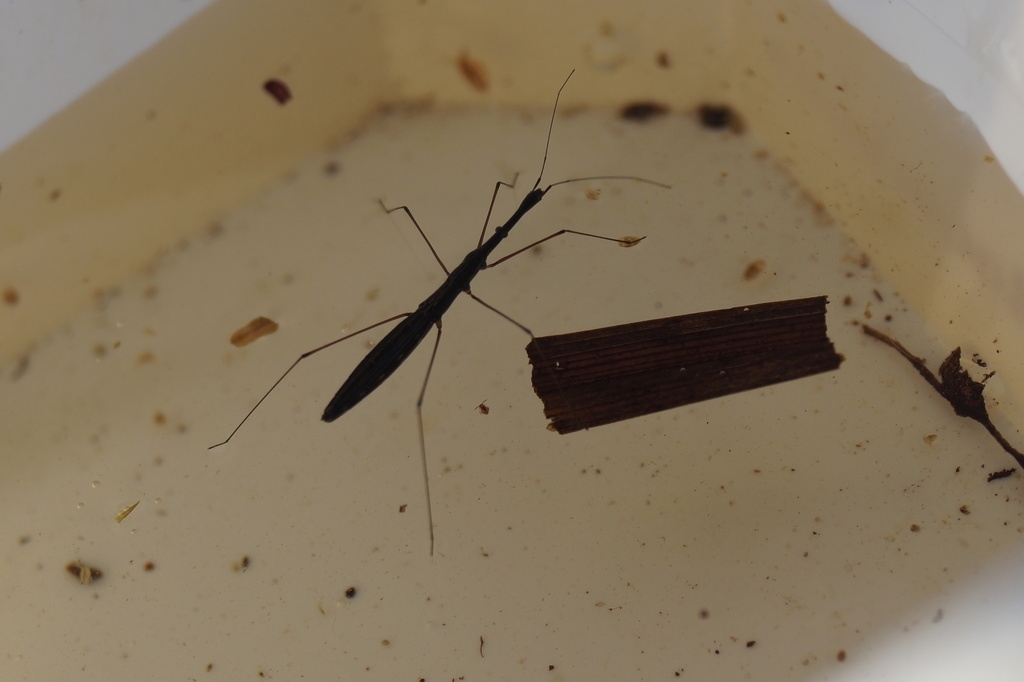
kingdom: Animalia
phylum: Arthropoda
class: Insecta
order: Hemiptera
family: Hydrometridae
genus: Hydrometra
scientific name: Hydrometra stagnorum
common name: Water measurer
